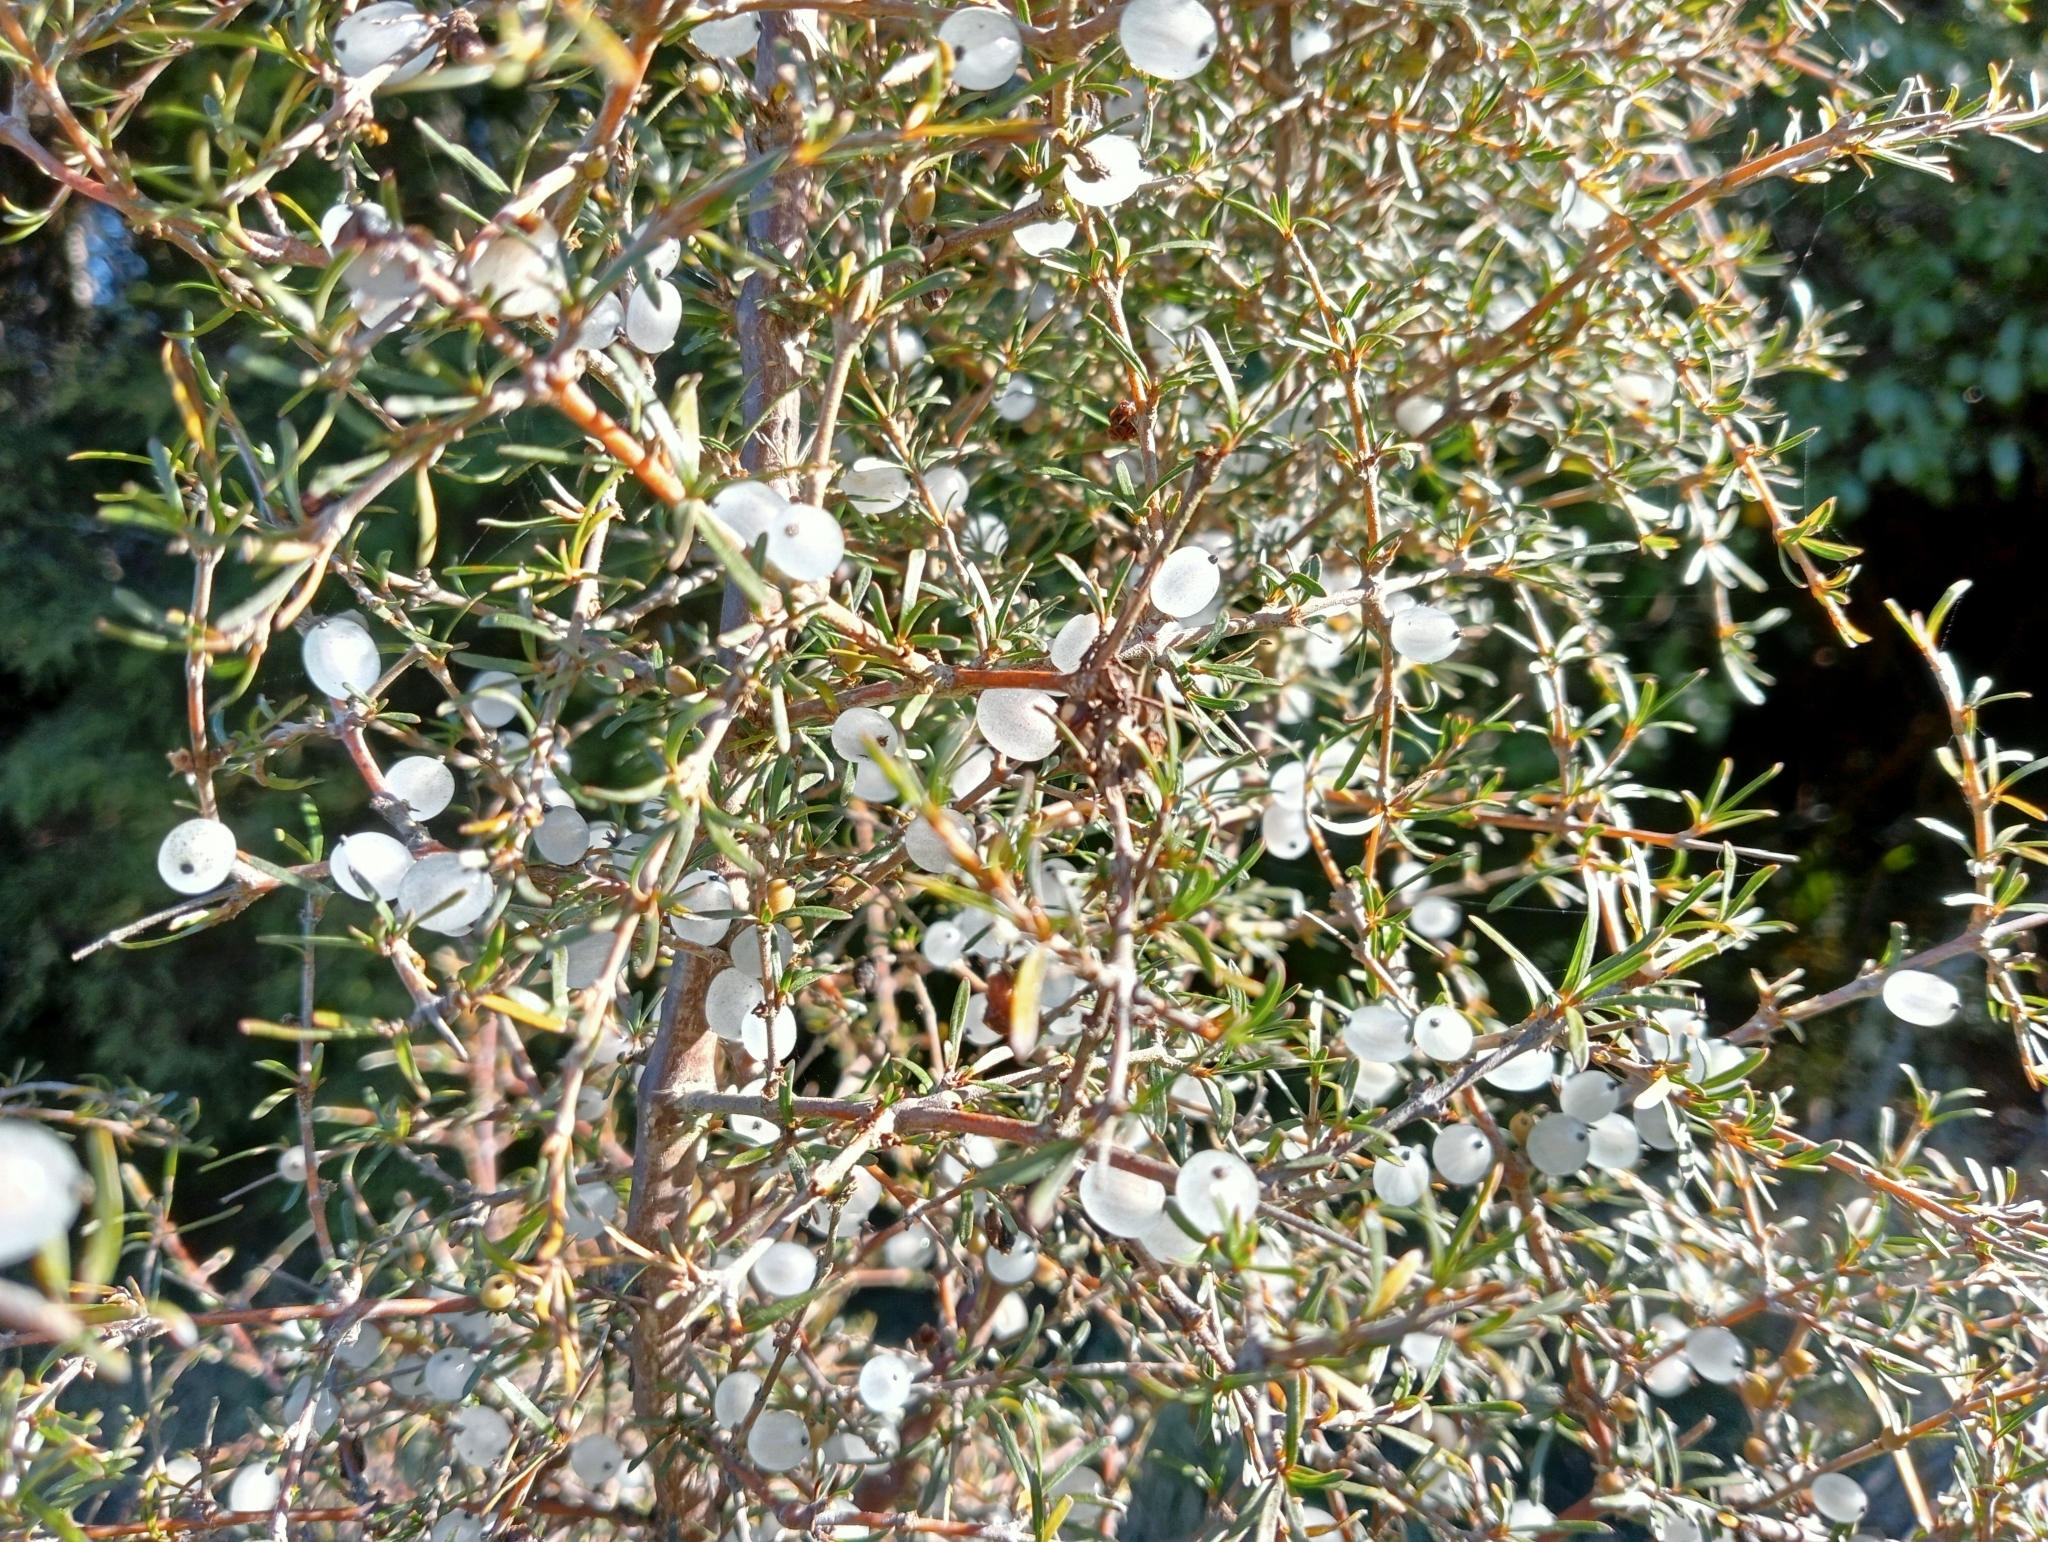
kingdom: Plantae
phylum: Tracheophyta
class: Magnoliopsida
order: Gentianales
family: Rubiaceae
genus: Coprosma
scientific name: Coprosma rugosa
